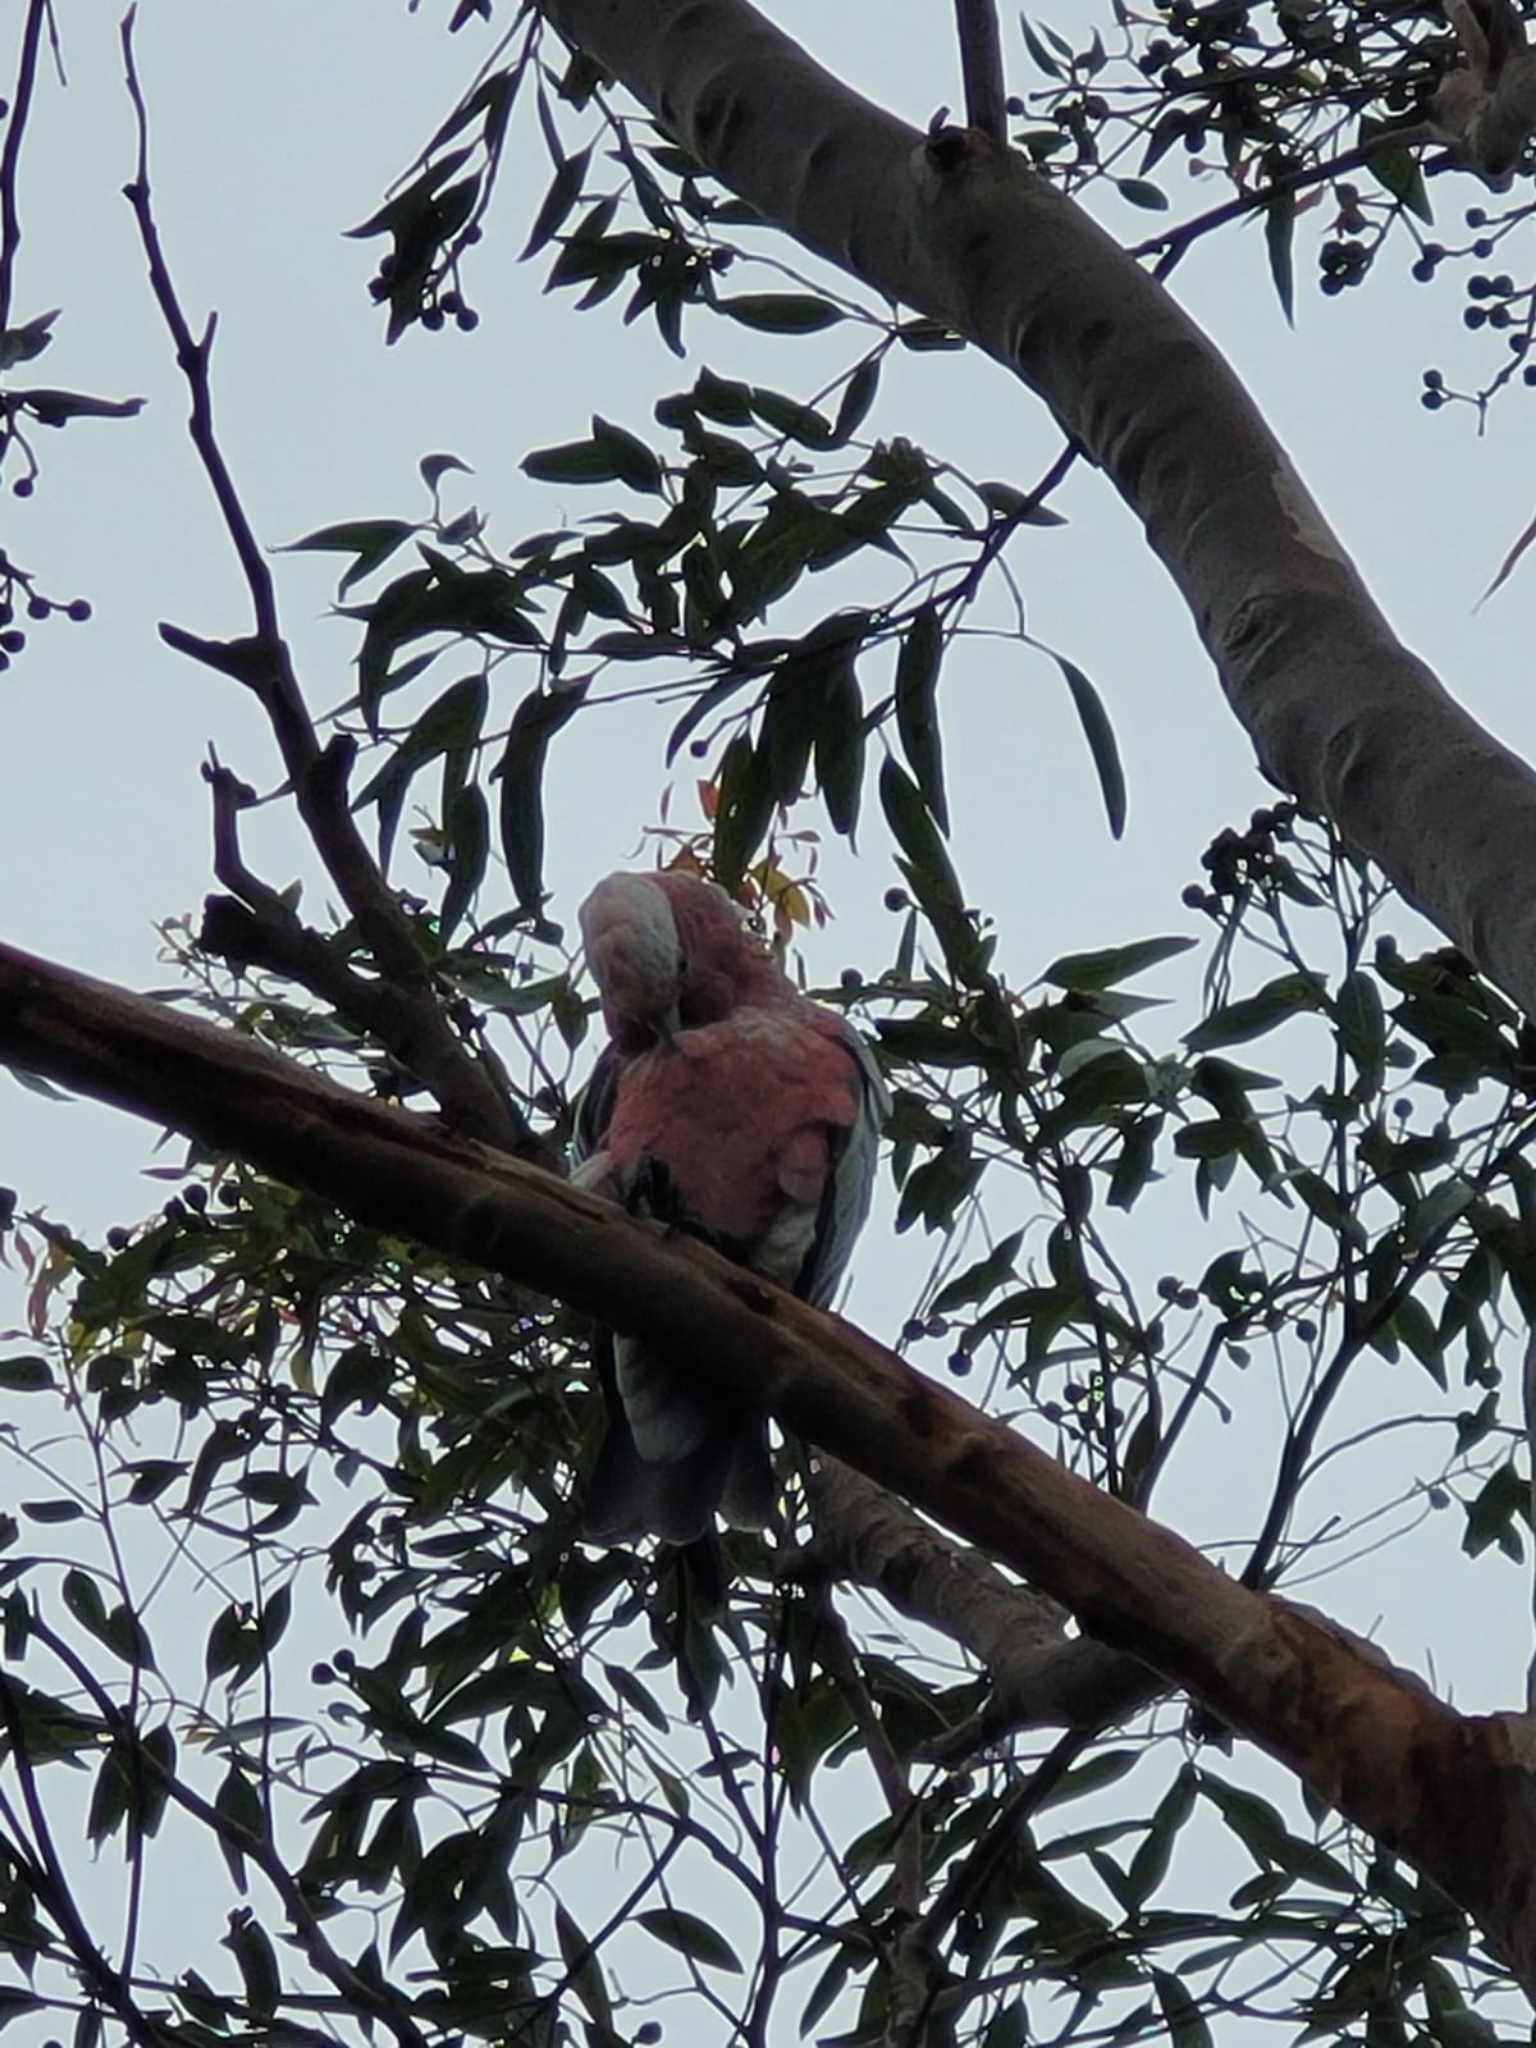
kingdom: Animalia
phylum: Chordata
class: Aves
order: Psittaciformes
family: Psittacidae
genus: Eolophus
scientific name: Eolophus roseicapilla
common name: Galah
